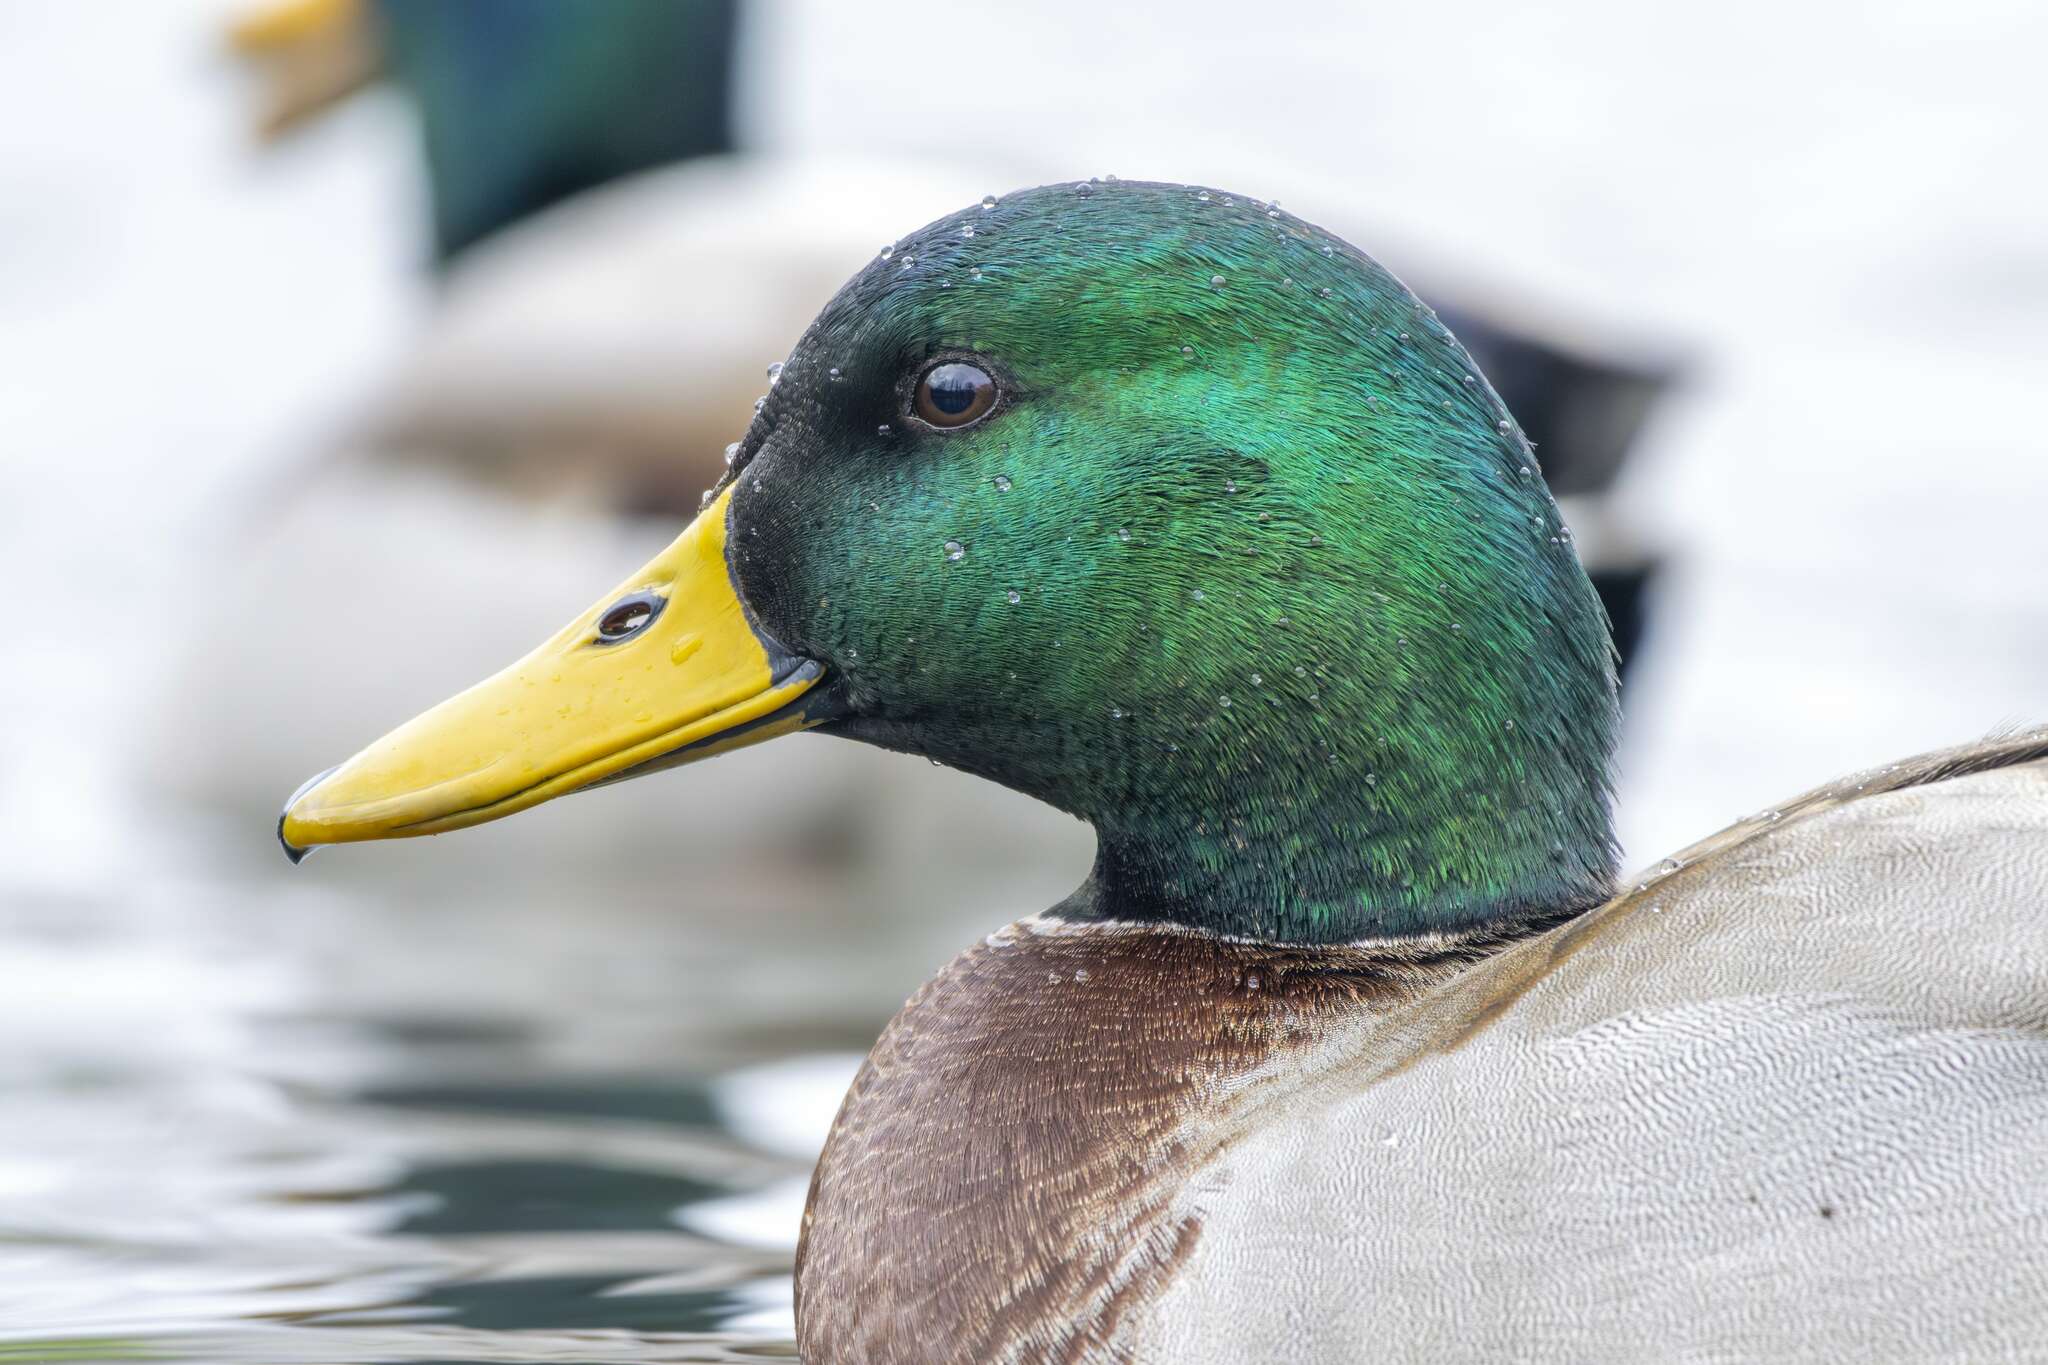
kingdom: Animalia
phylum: Chordata
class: Aves
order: Anseriformes
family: Anatidae
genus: Anas
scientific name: Anas platyrhynchos
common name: Mallard
